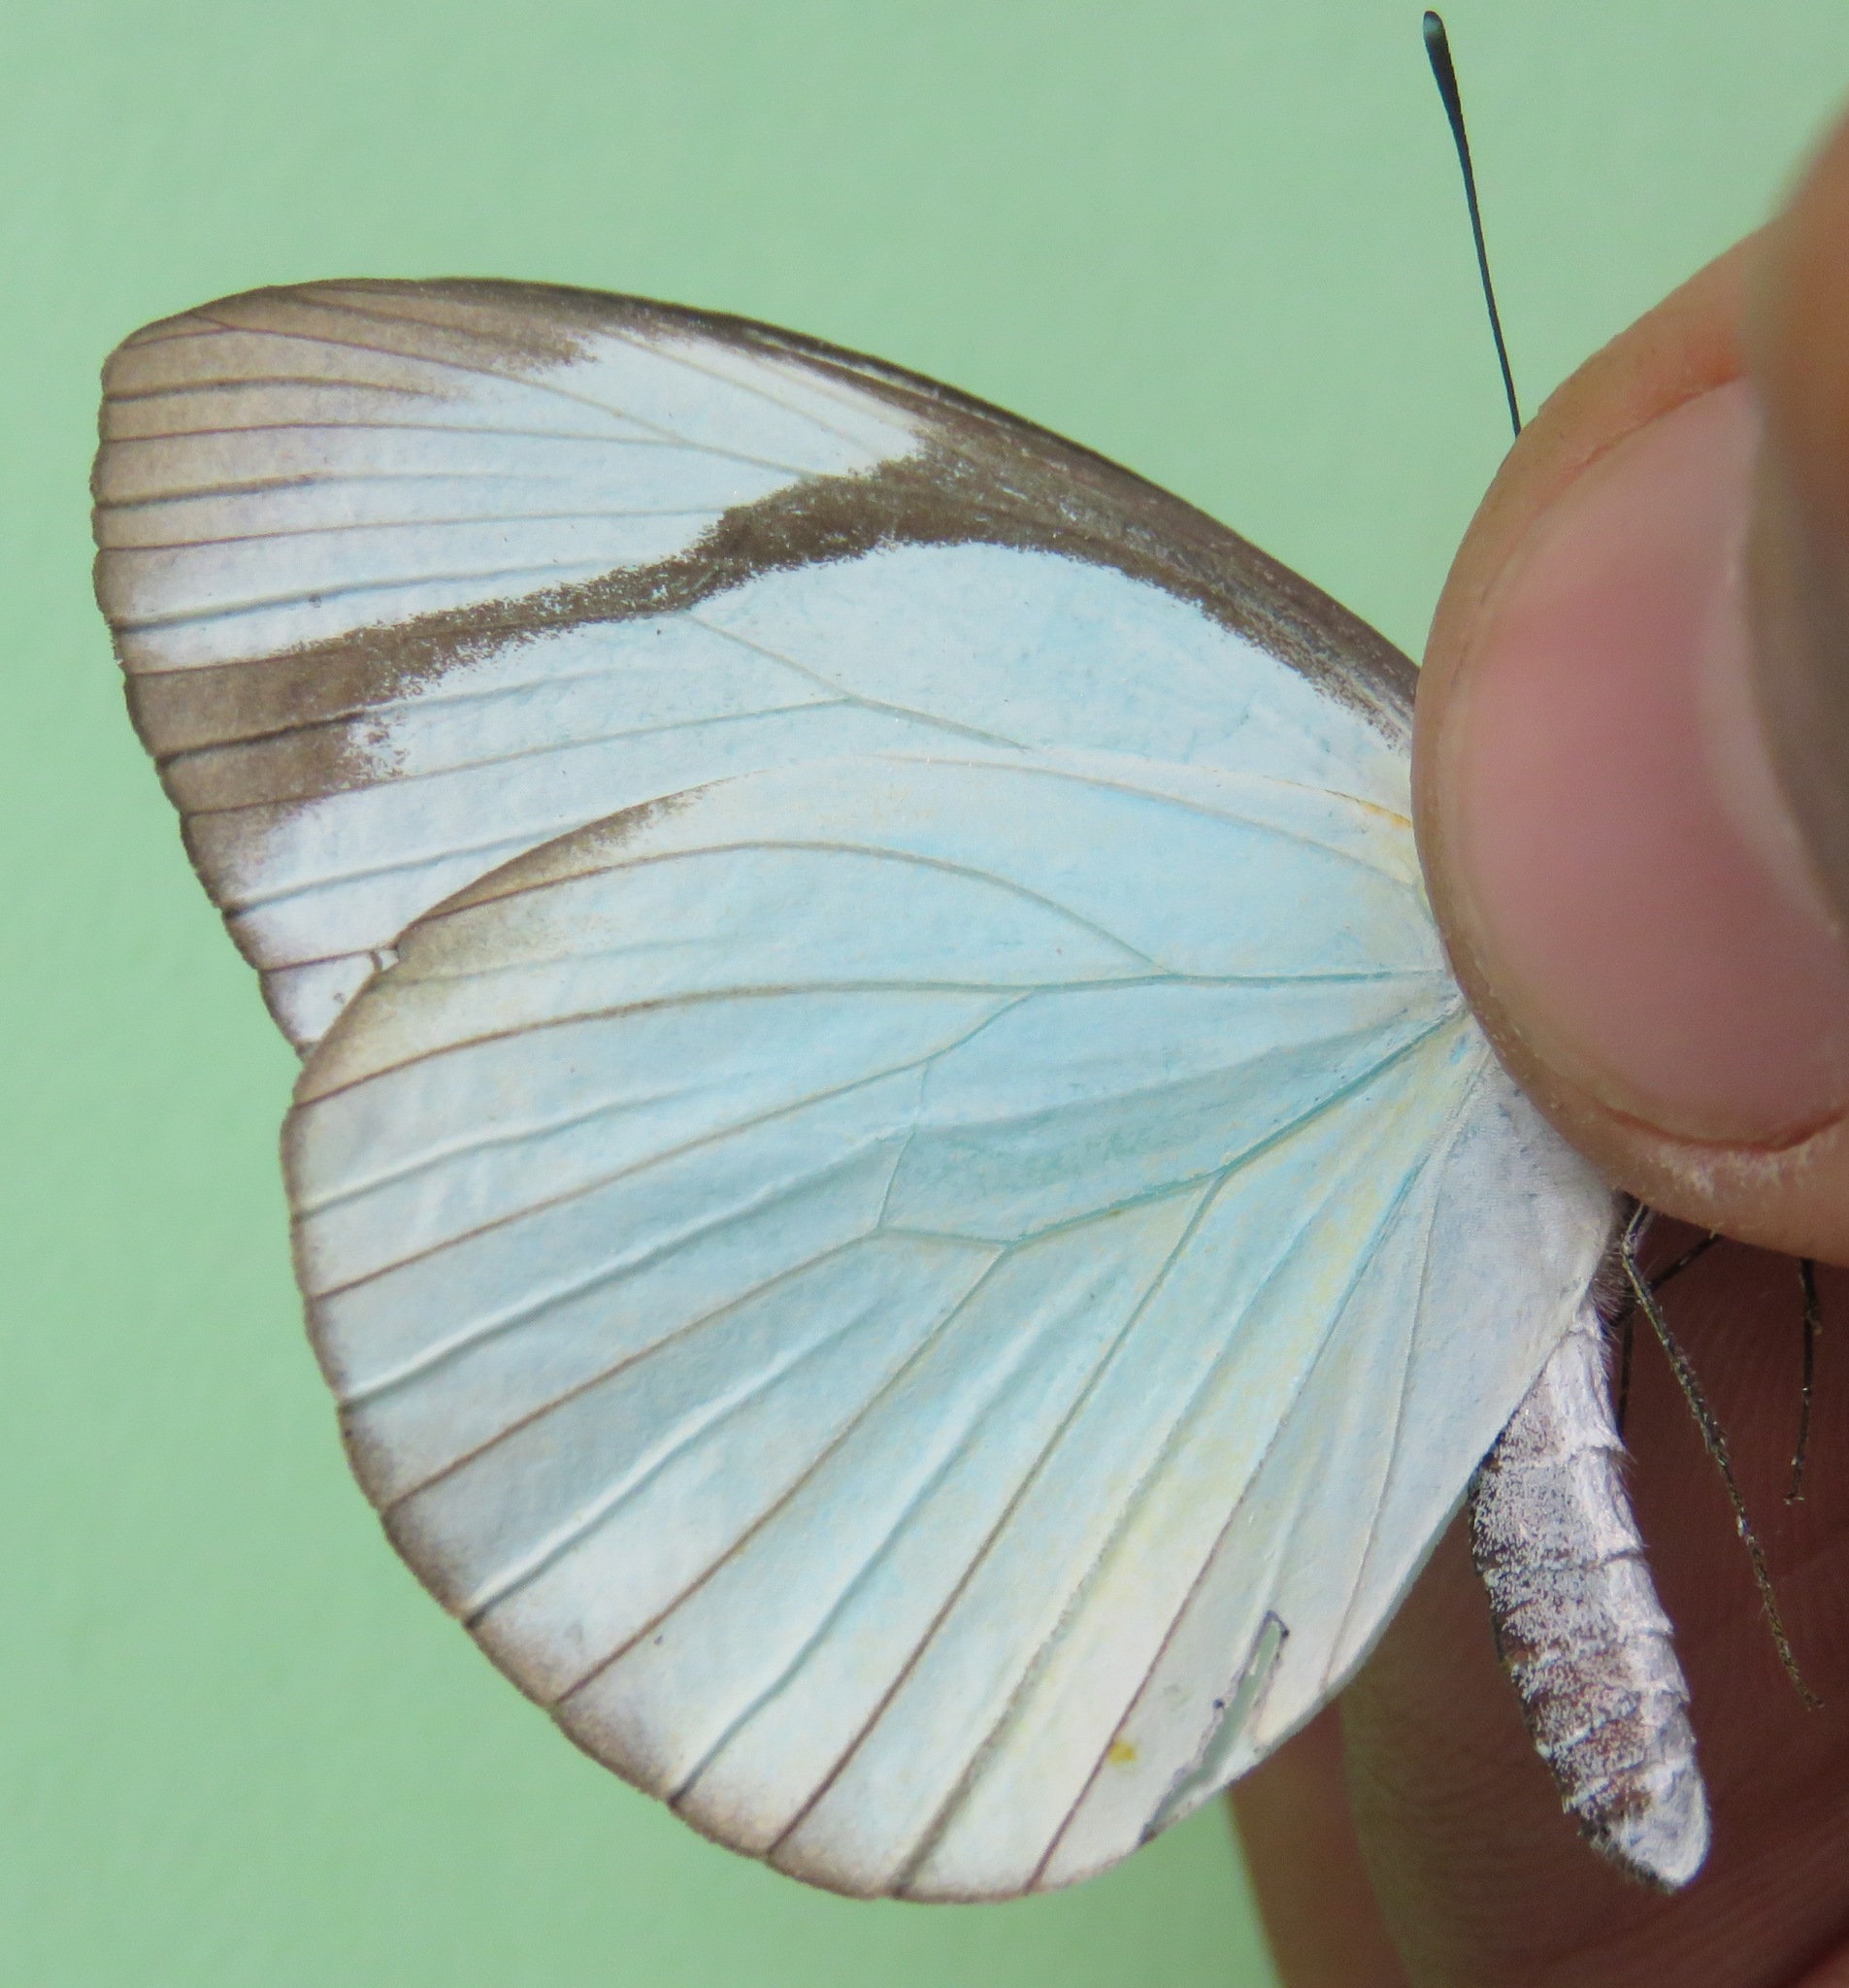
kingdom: Animalia
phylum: Arthropoda
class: Insecta
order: Lepidoptera
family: Pieridae
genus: Itaballia
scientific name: Itaballia demophile
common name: Cross-barred white
